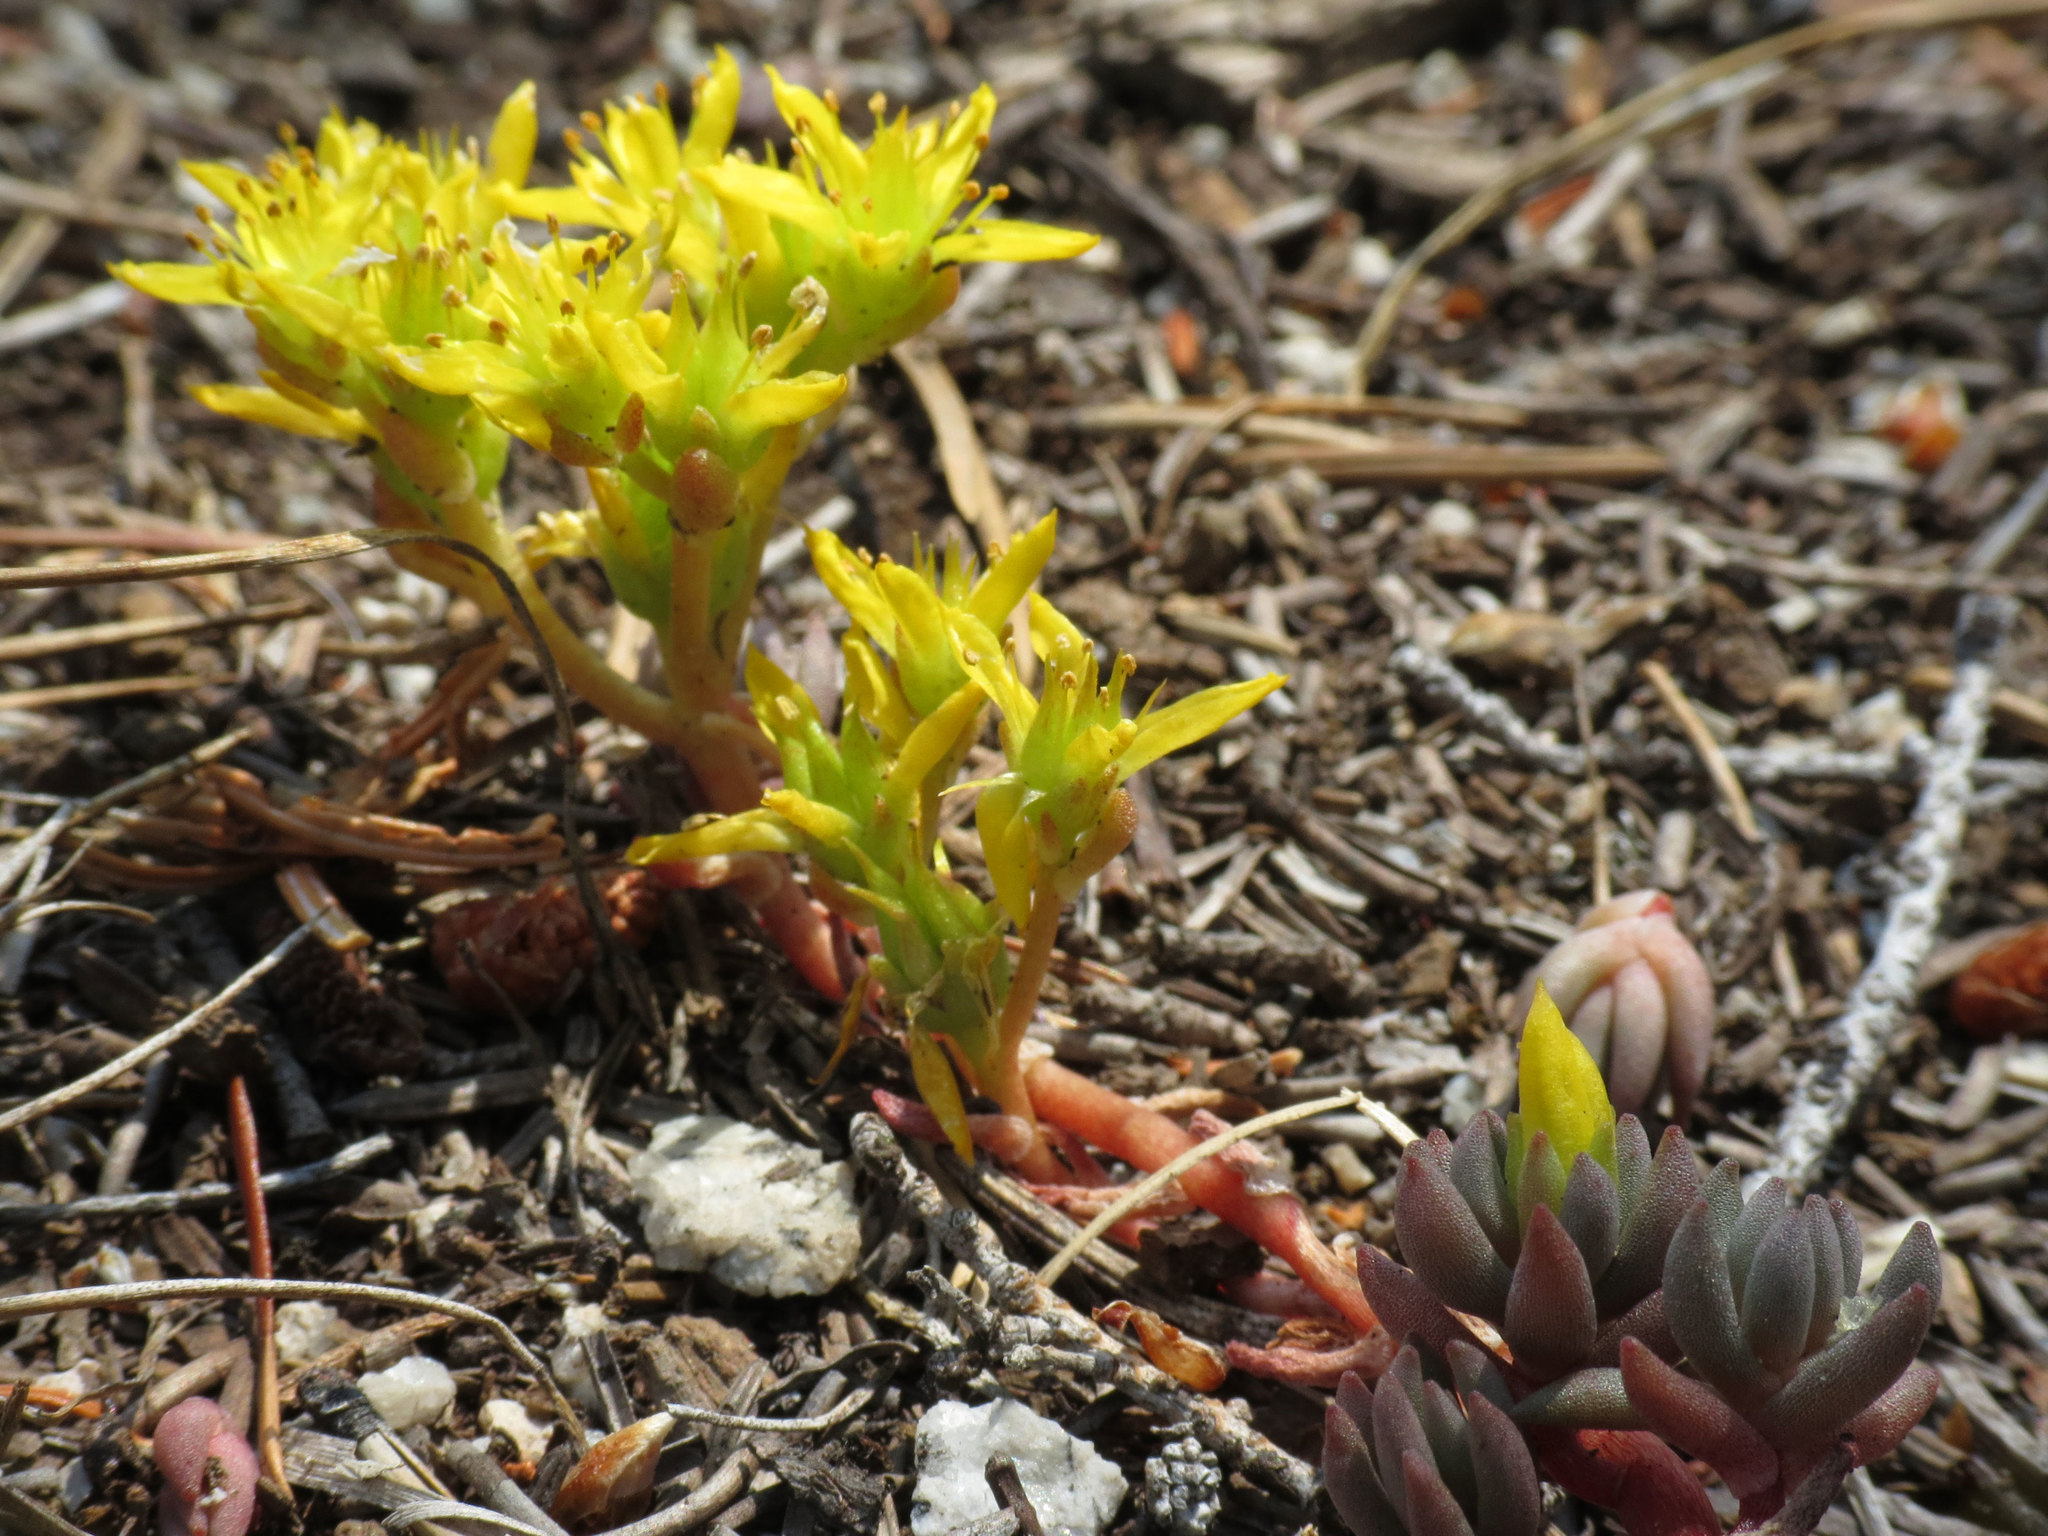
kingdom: Plantae
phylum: Tracheophyta
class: Magnoliopsida
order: Saxifragales
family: Crassulaceae
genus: Sedum
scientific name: Sedum lanceolatum
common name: Common stonecrop
